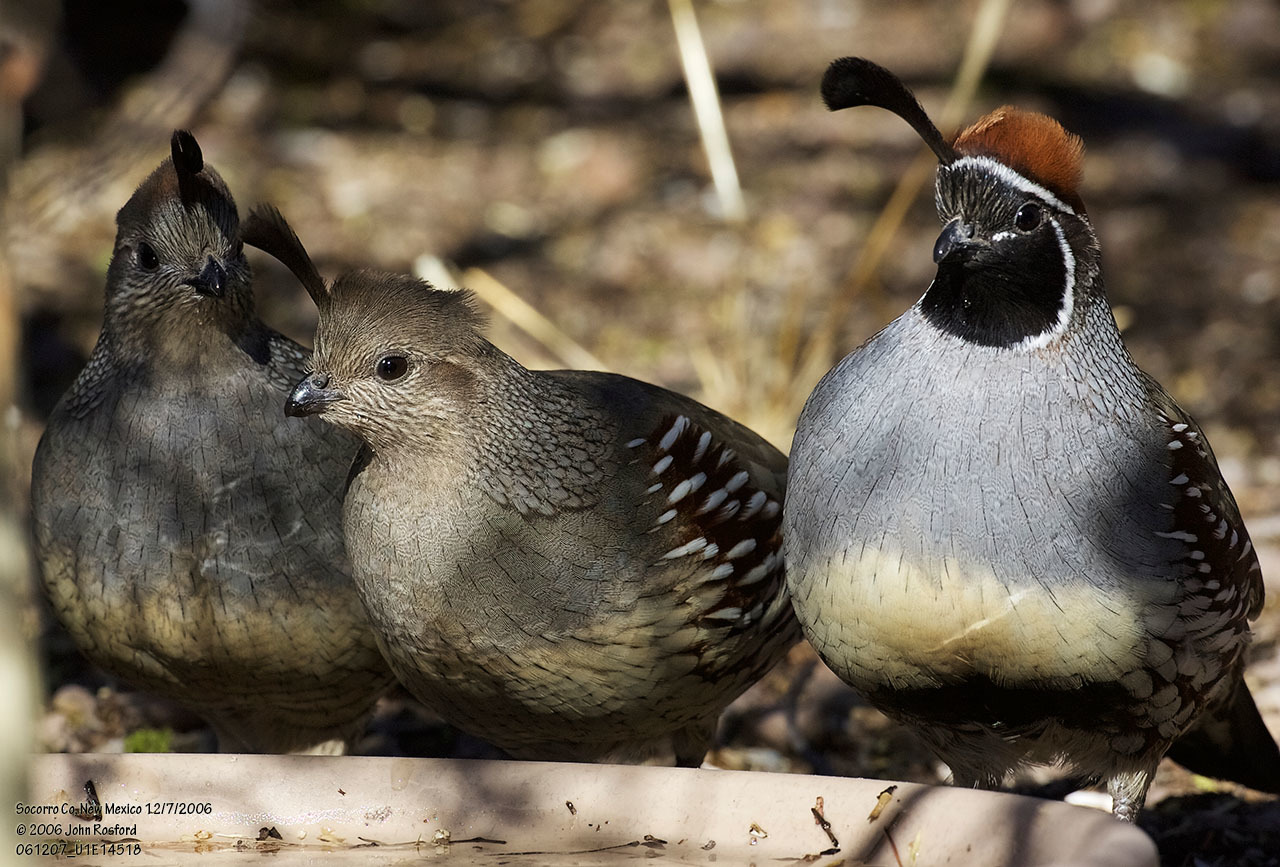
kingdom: Animalia
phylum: Chordata
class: Aves
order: Galliformes
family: Odontophoridae
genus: Callipepla
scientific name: Callipepla gambelii
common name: Gambel's quail
